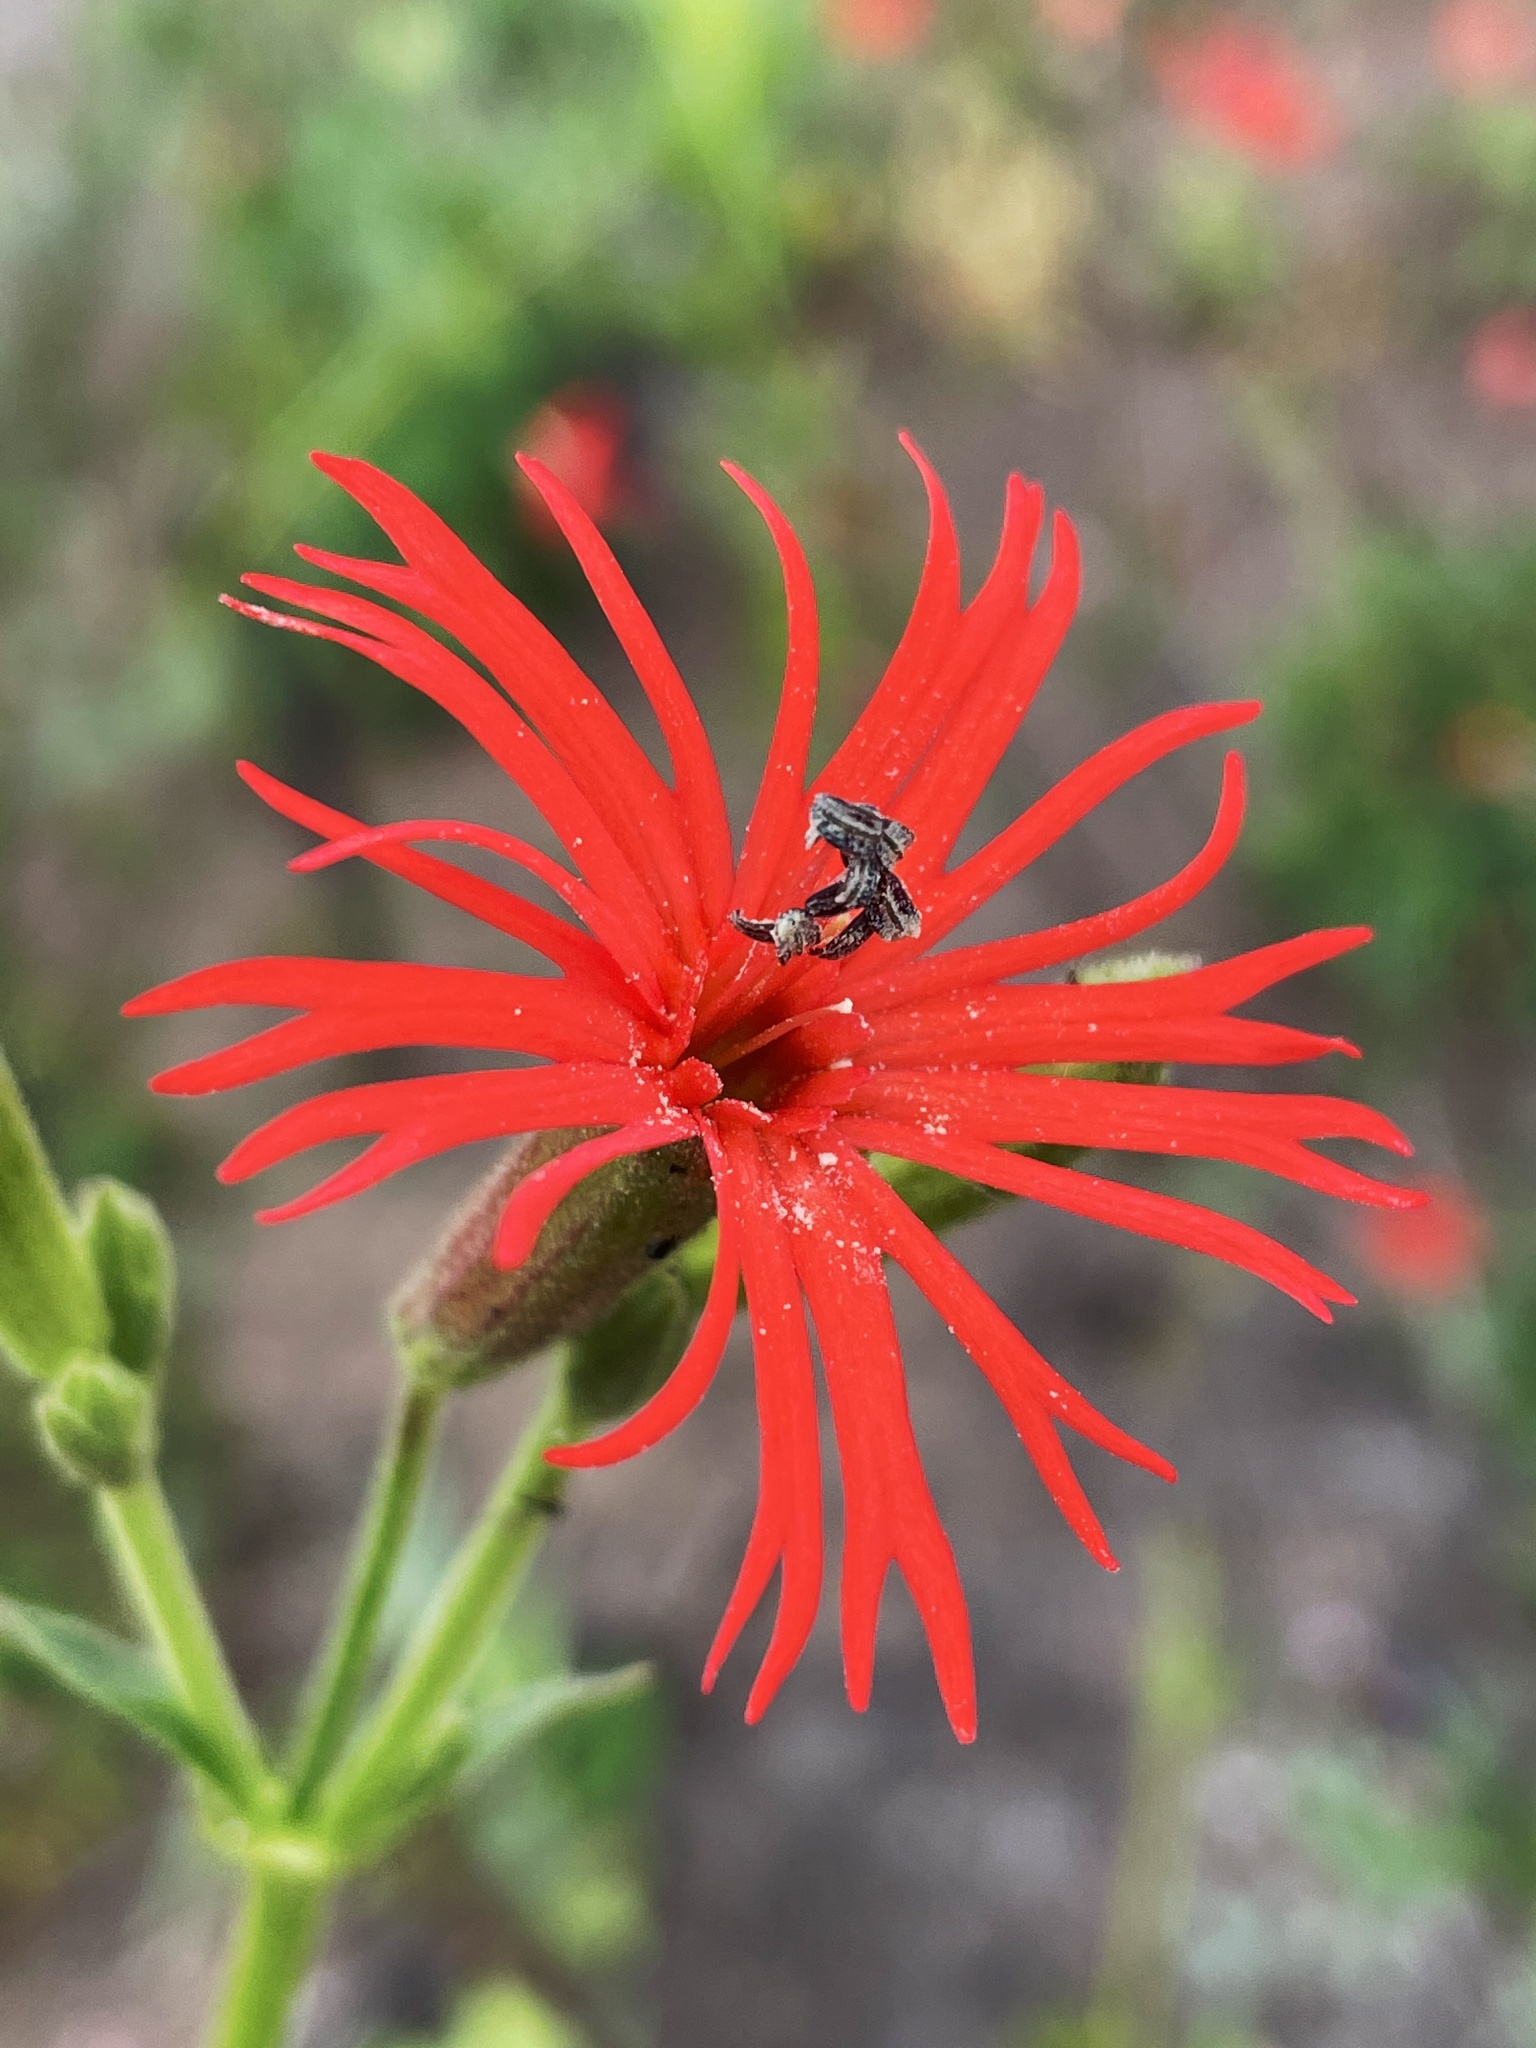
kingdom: Plantae
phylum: Tracheophyta
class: Magnoliopsida
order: Caryophyllales
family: Caryophyllaceae
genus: Silene
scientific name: Silene laciniata
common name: Indian-pink
